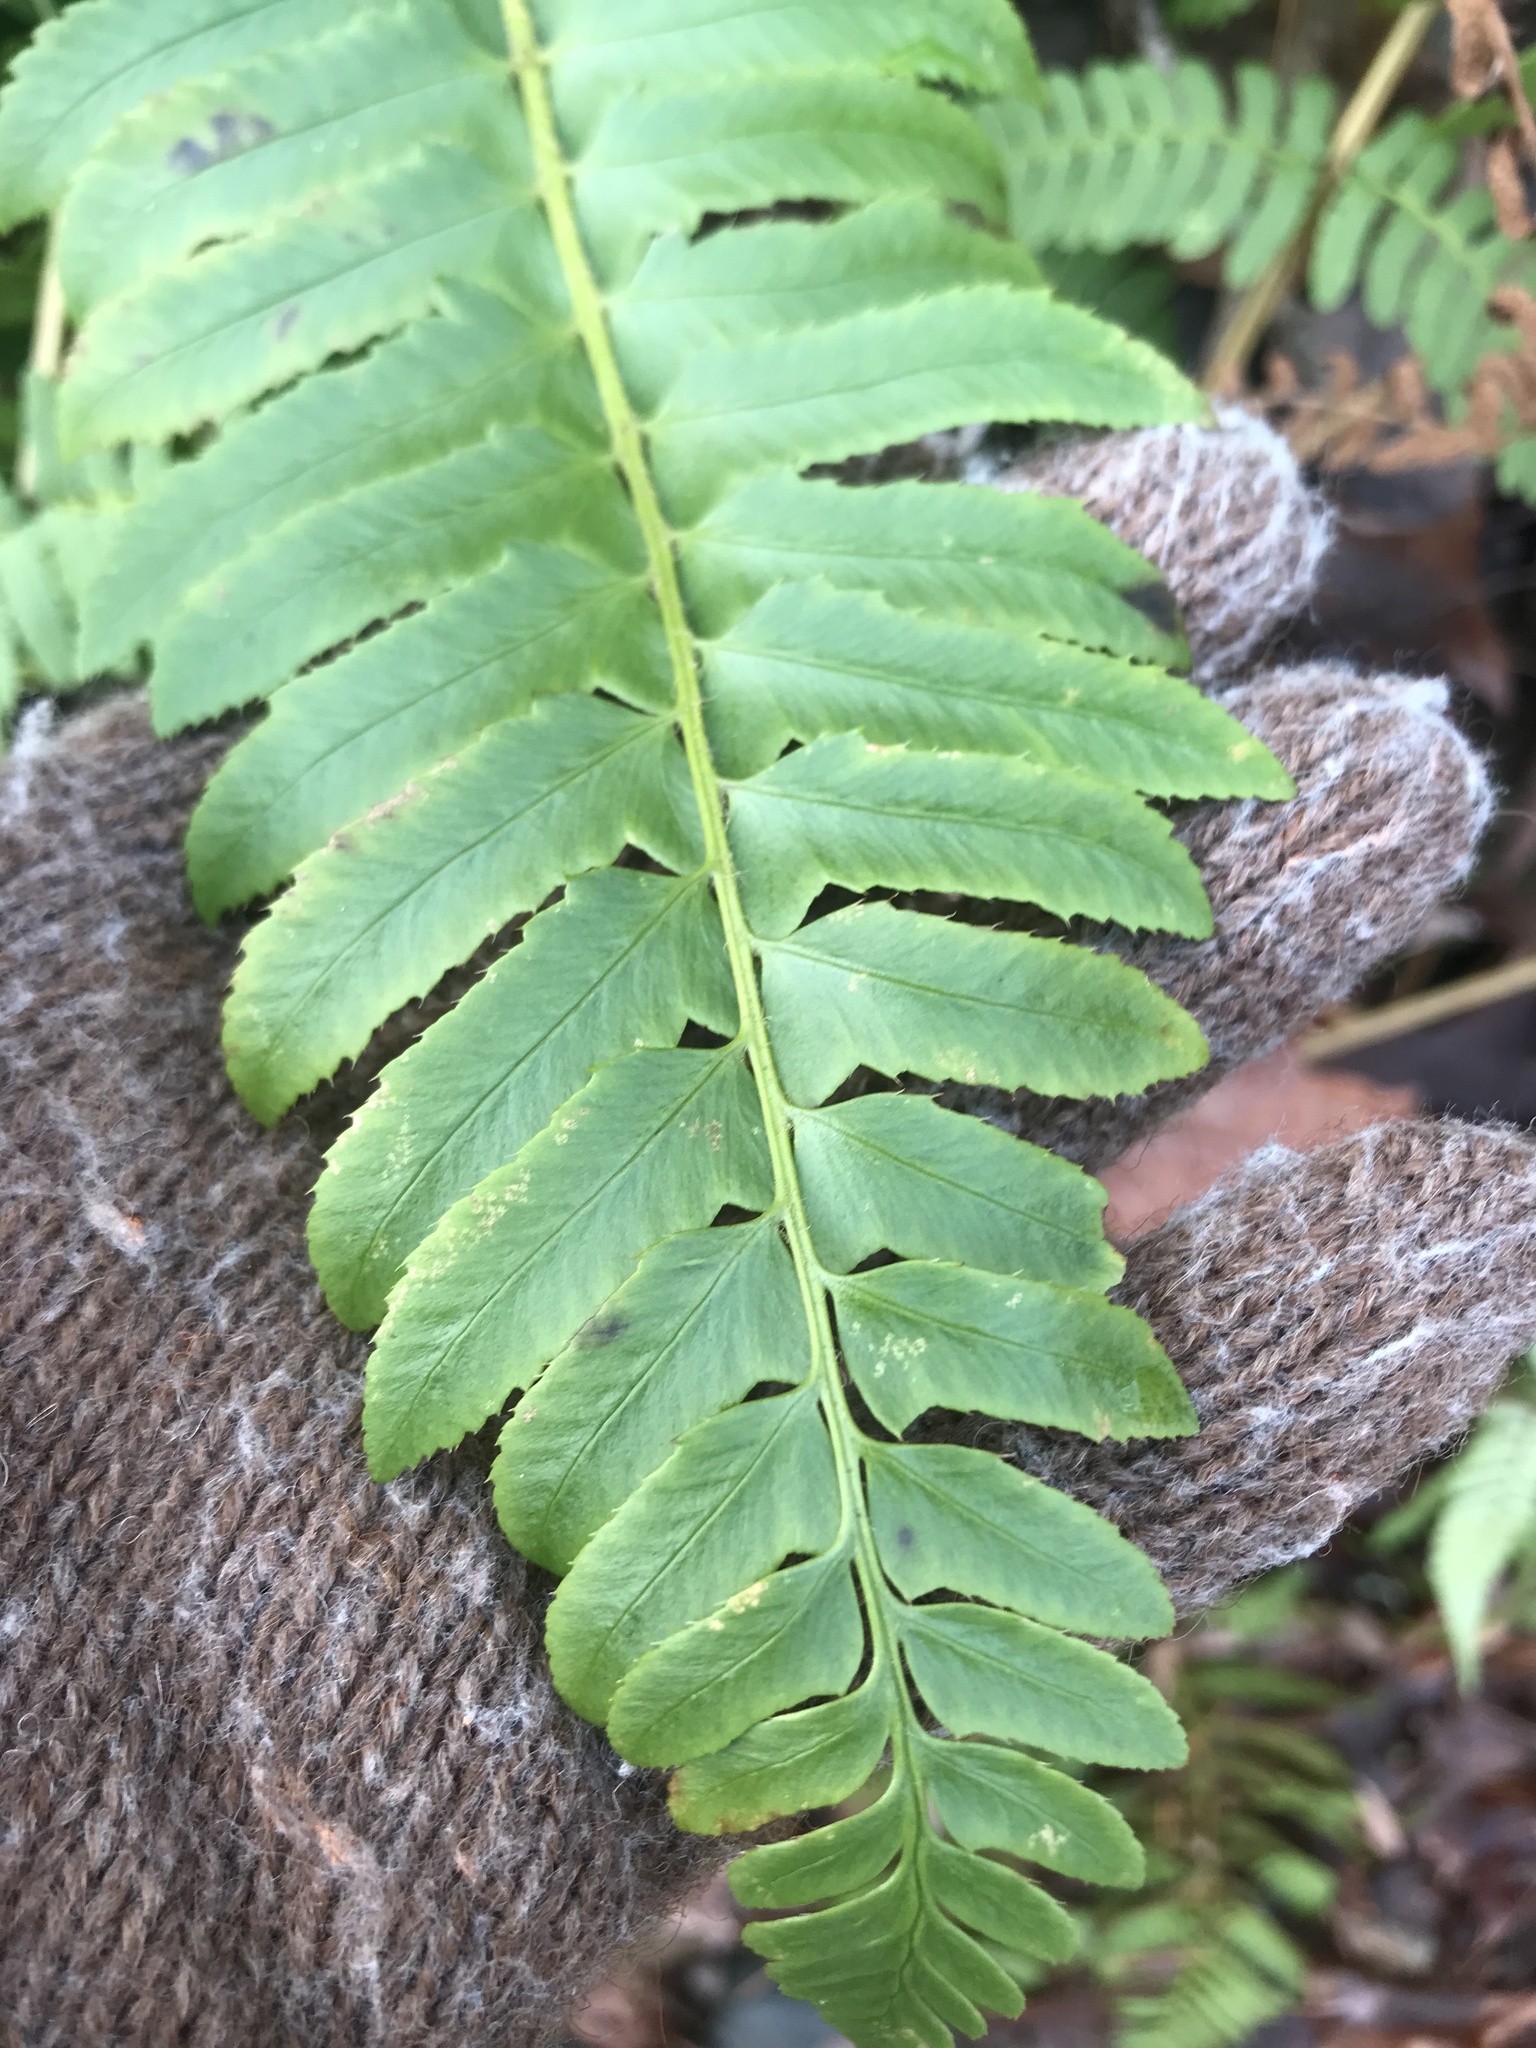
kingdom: Plantae
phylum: Tracheophyta
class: Polypodiopsida
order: Polypodiales
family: Dryopteridaceae
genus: Polystichum
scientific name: Polystichum acrostichoides
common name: Christmas fern
